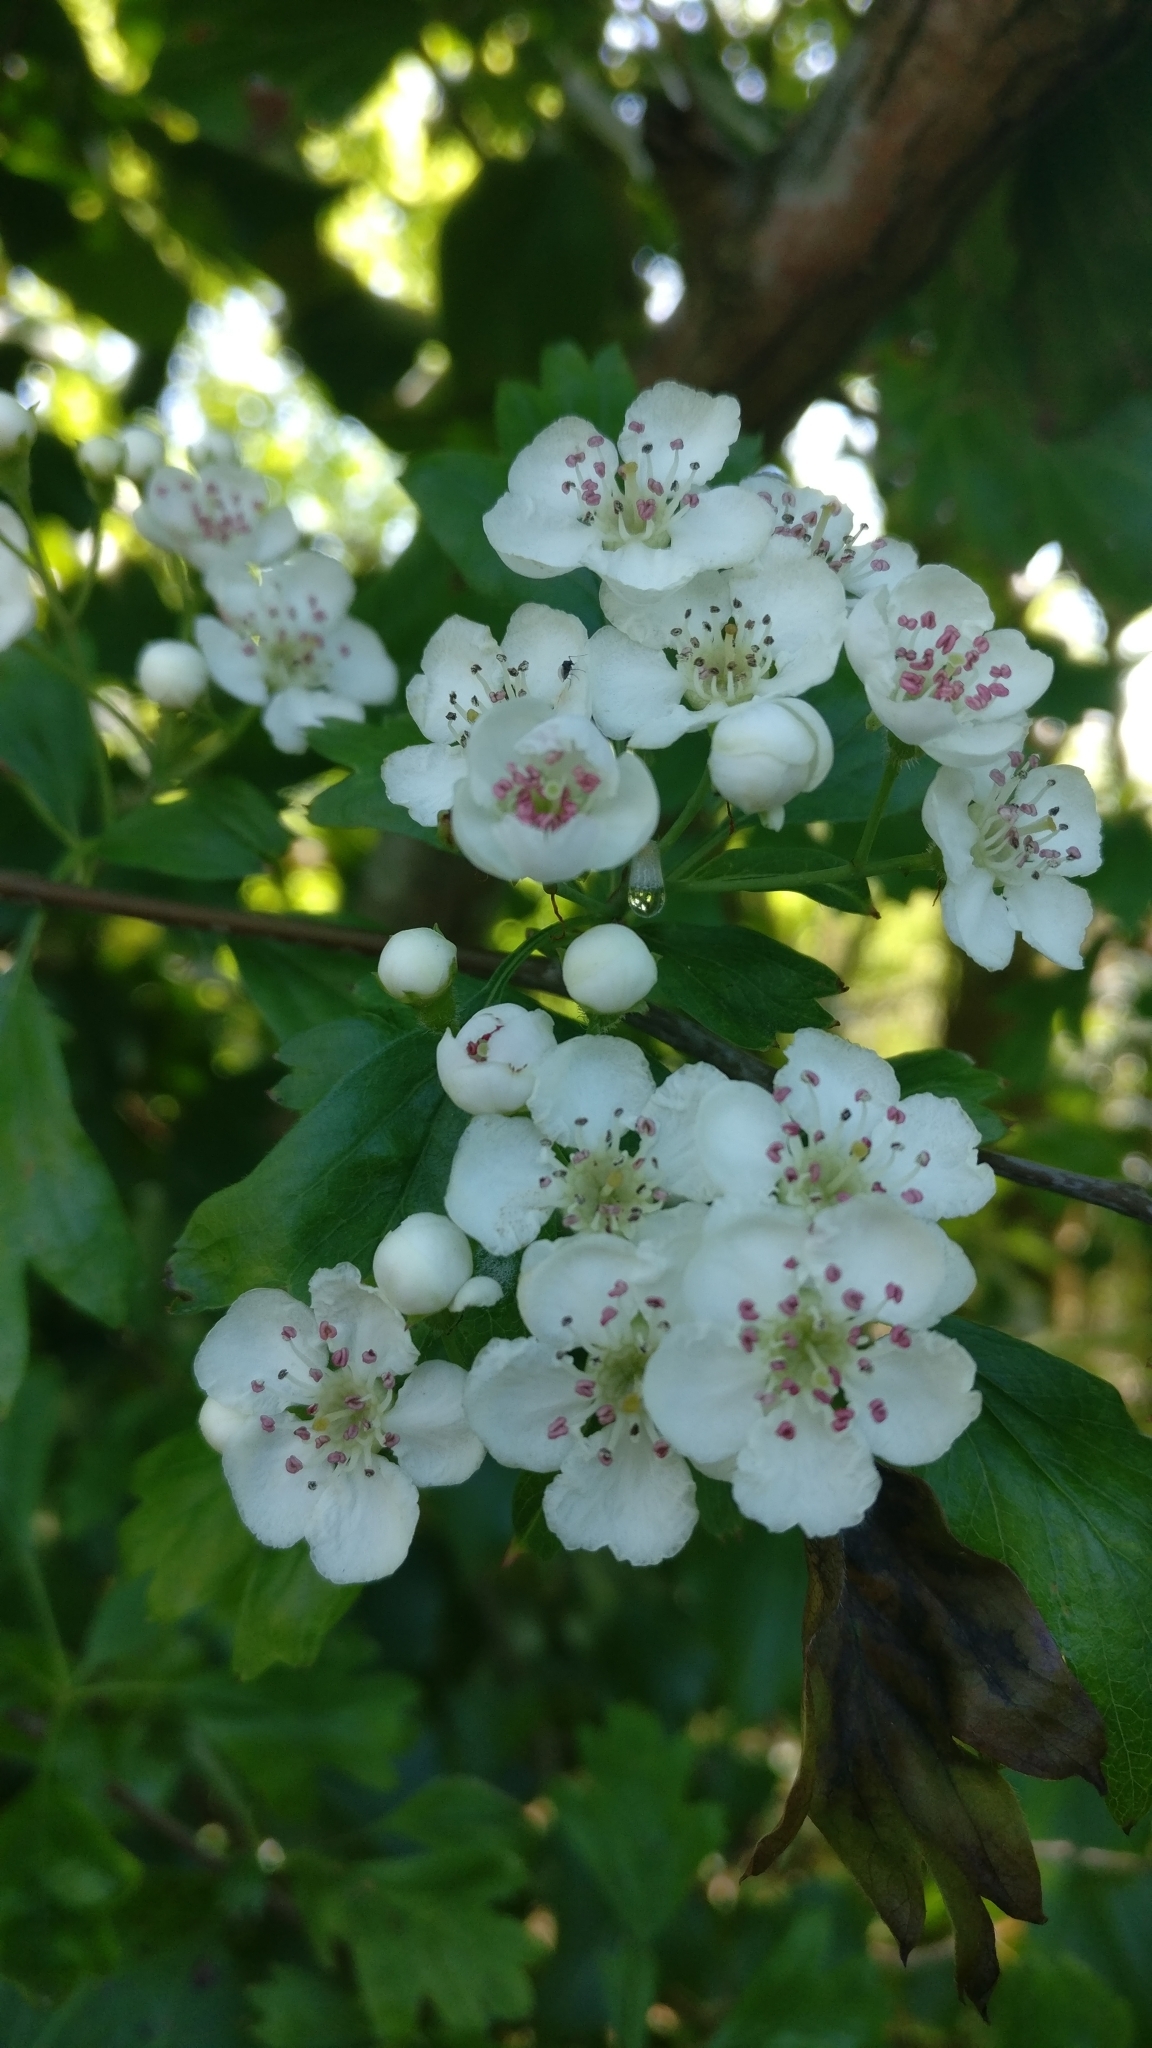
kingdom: Plantae
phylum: Tracheophyta
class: Magnoliopsida
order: Rosales
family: Rosaceae
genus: Crataegus
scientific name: Crataegus monogyna
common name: Hawthorn
